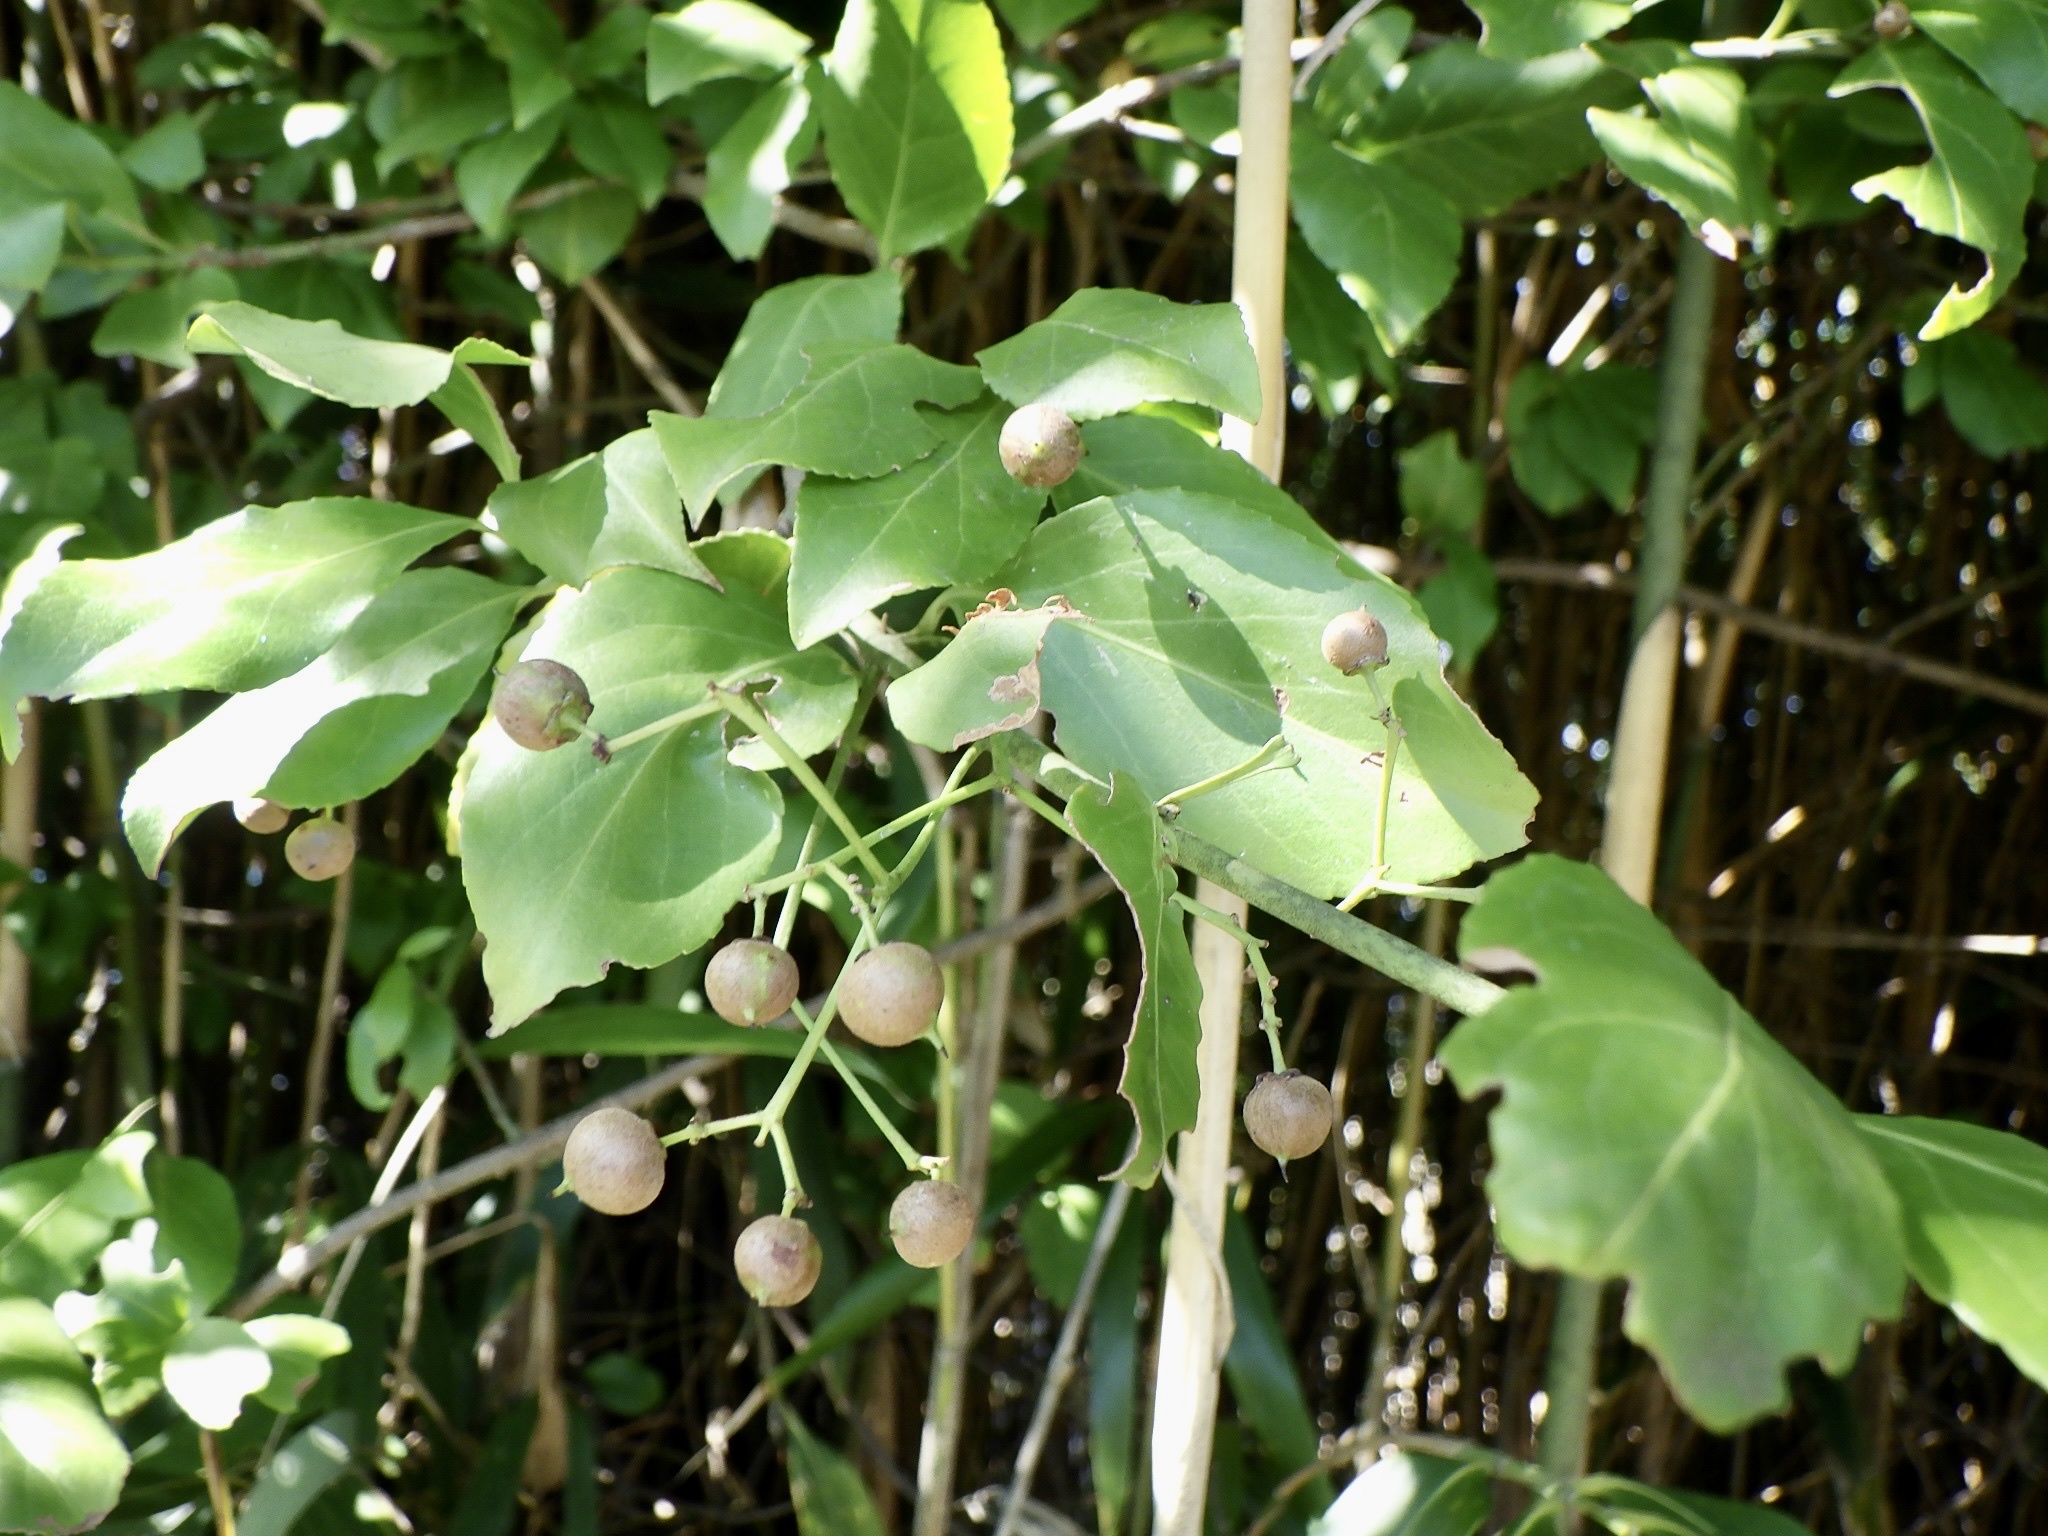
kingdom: Plantae
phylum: Tracheophyta
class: Magnoliopsida
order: Celastrales
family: Celastraceae
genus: Euonymus
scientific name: Euonymus fortunei
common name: Climbing euonymus
